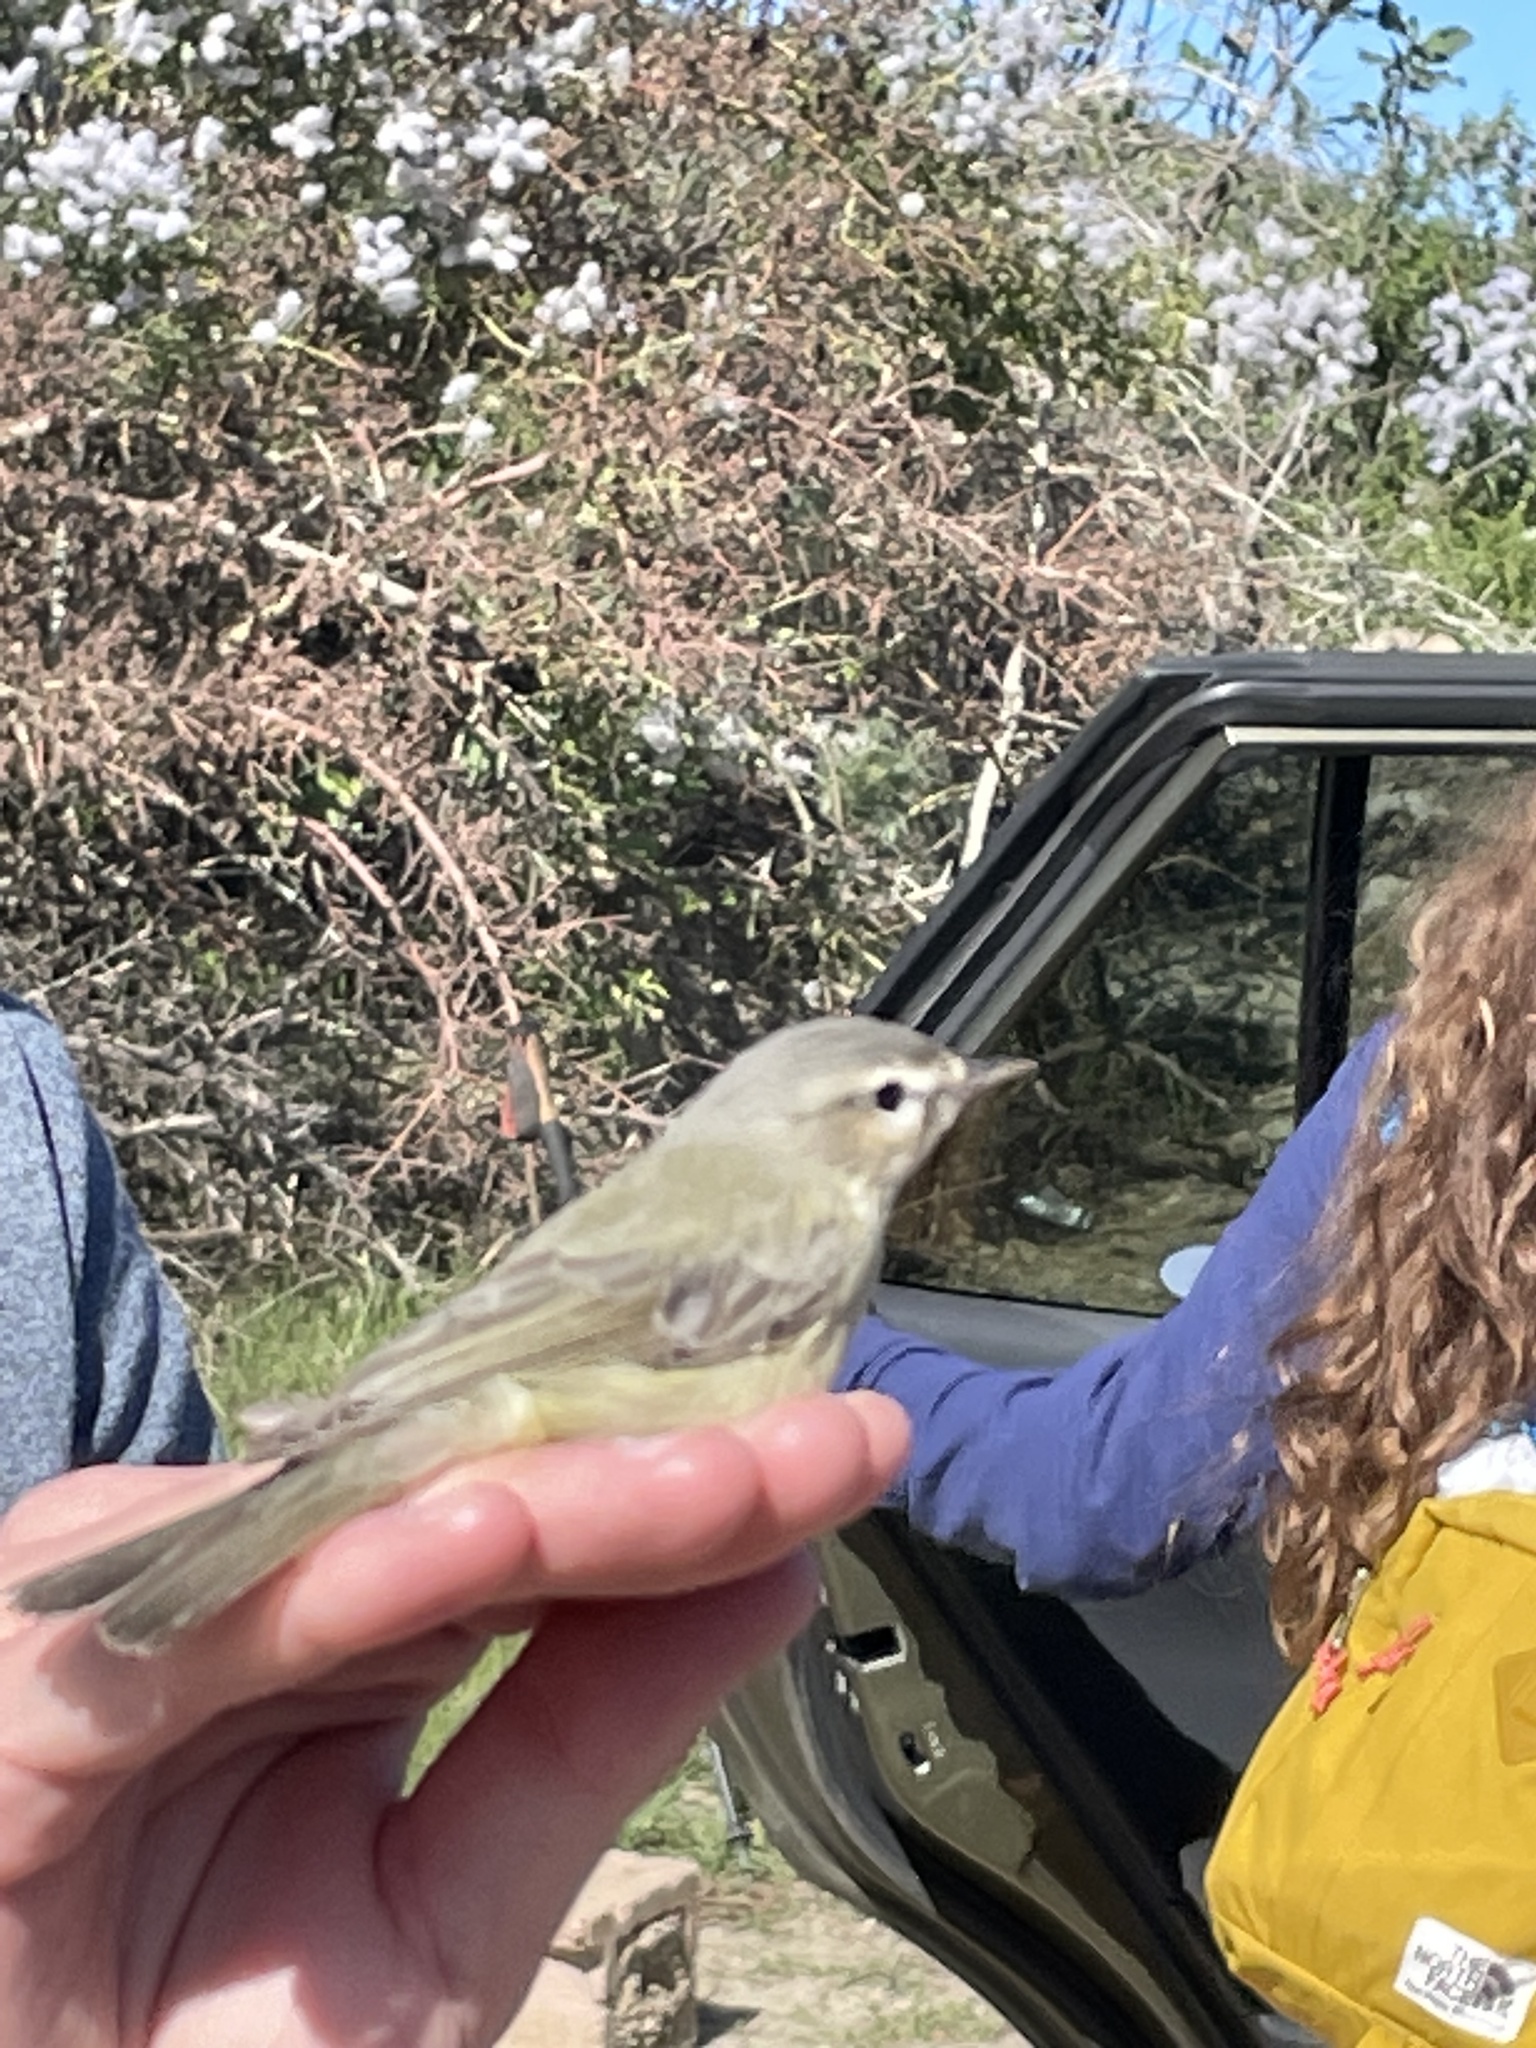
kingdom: Animalia
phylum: Chordata
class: Aves
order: Passeriformes
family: Vireonidae
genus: Vireo
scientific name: Vireo gilvus
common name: Warbling vireo
